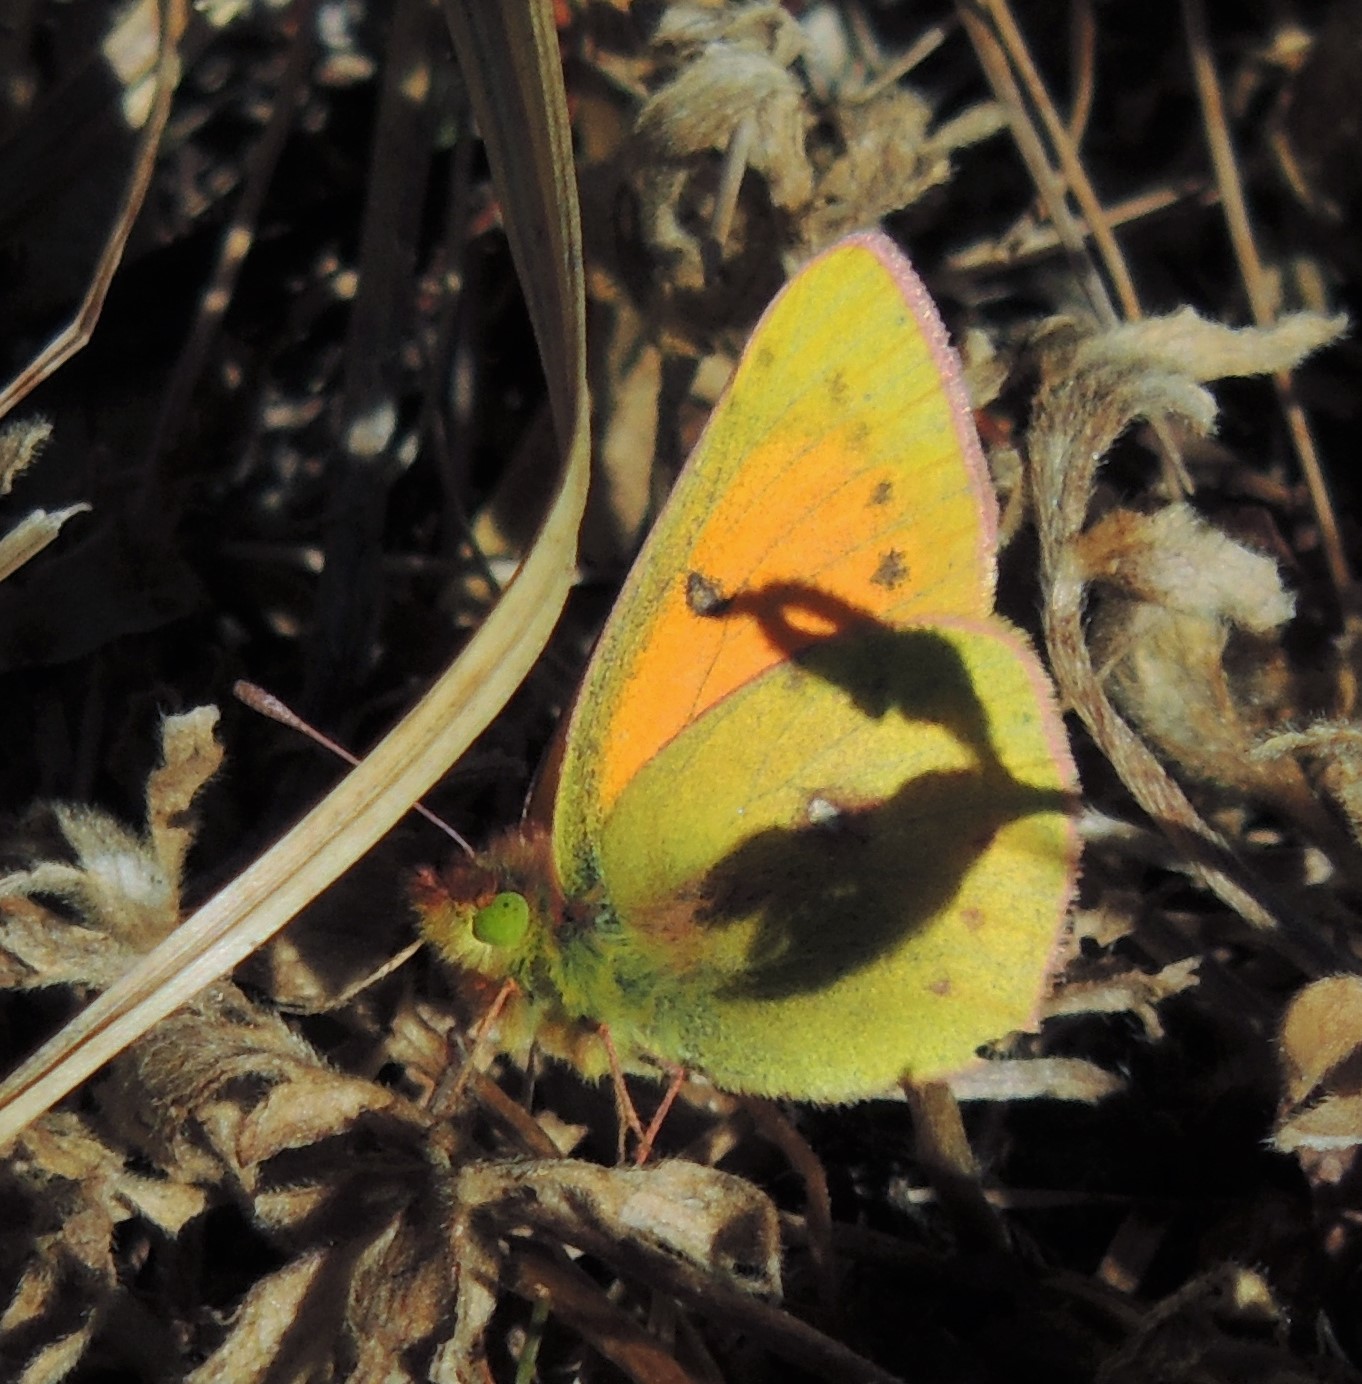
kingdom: Animalia
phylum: Arthropoda
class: Insecta
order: Lepidoptera
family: Pieridae
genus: Colias
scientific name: Colias vauthierii
